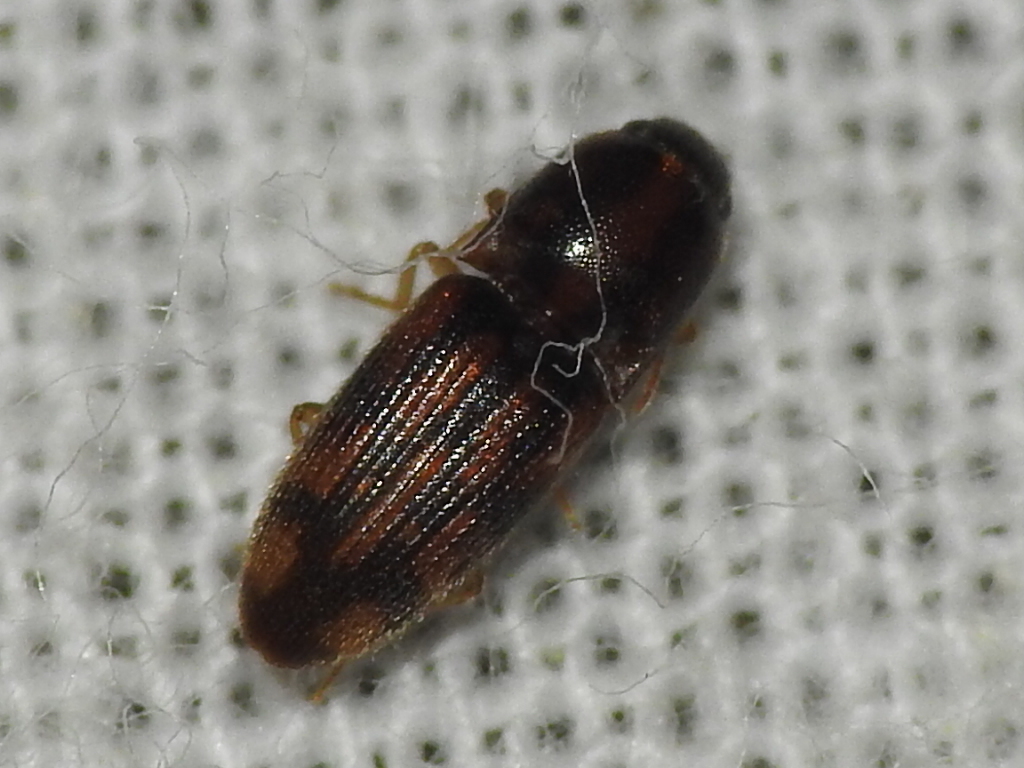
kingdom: Animalia
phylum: Arthropoda
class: Insecta
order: Coleoptera
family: Elateridae
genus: Monocrepidius
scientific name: Monocrepidius bellus
